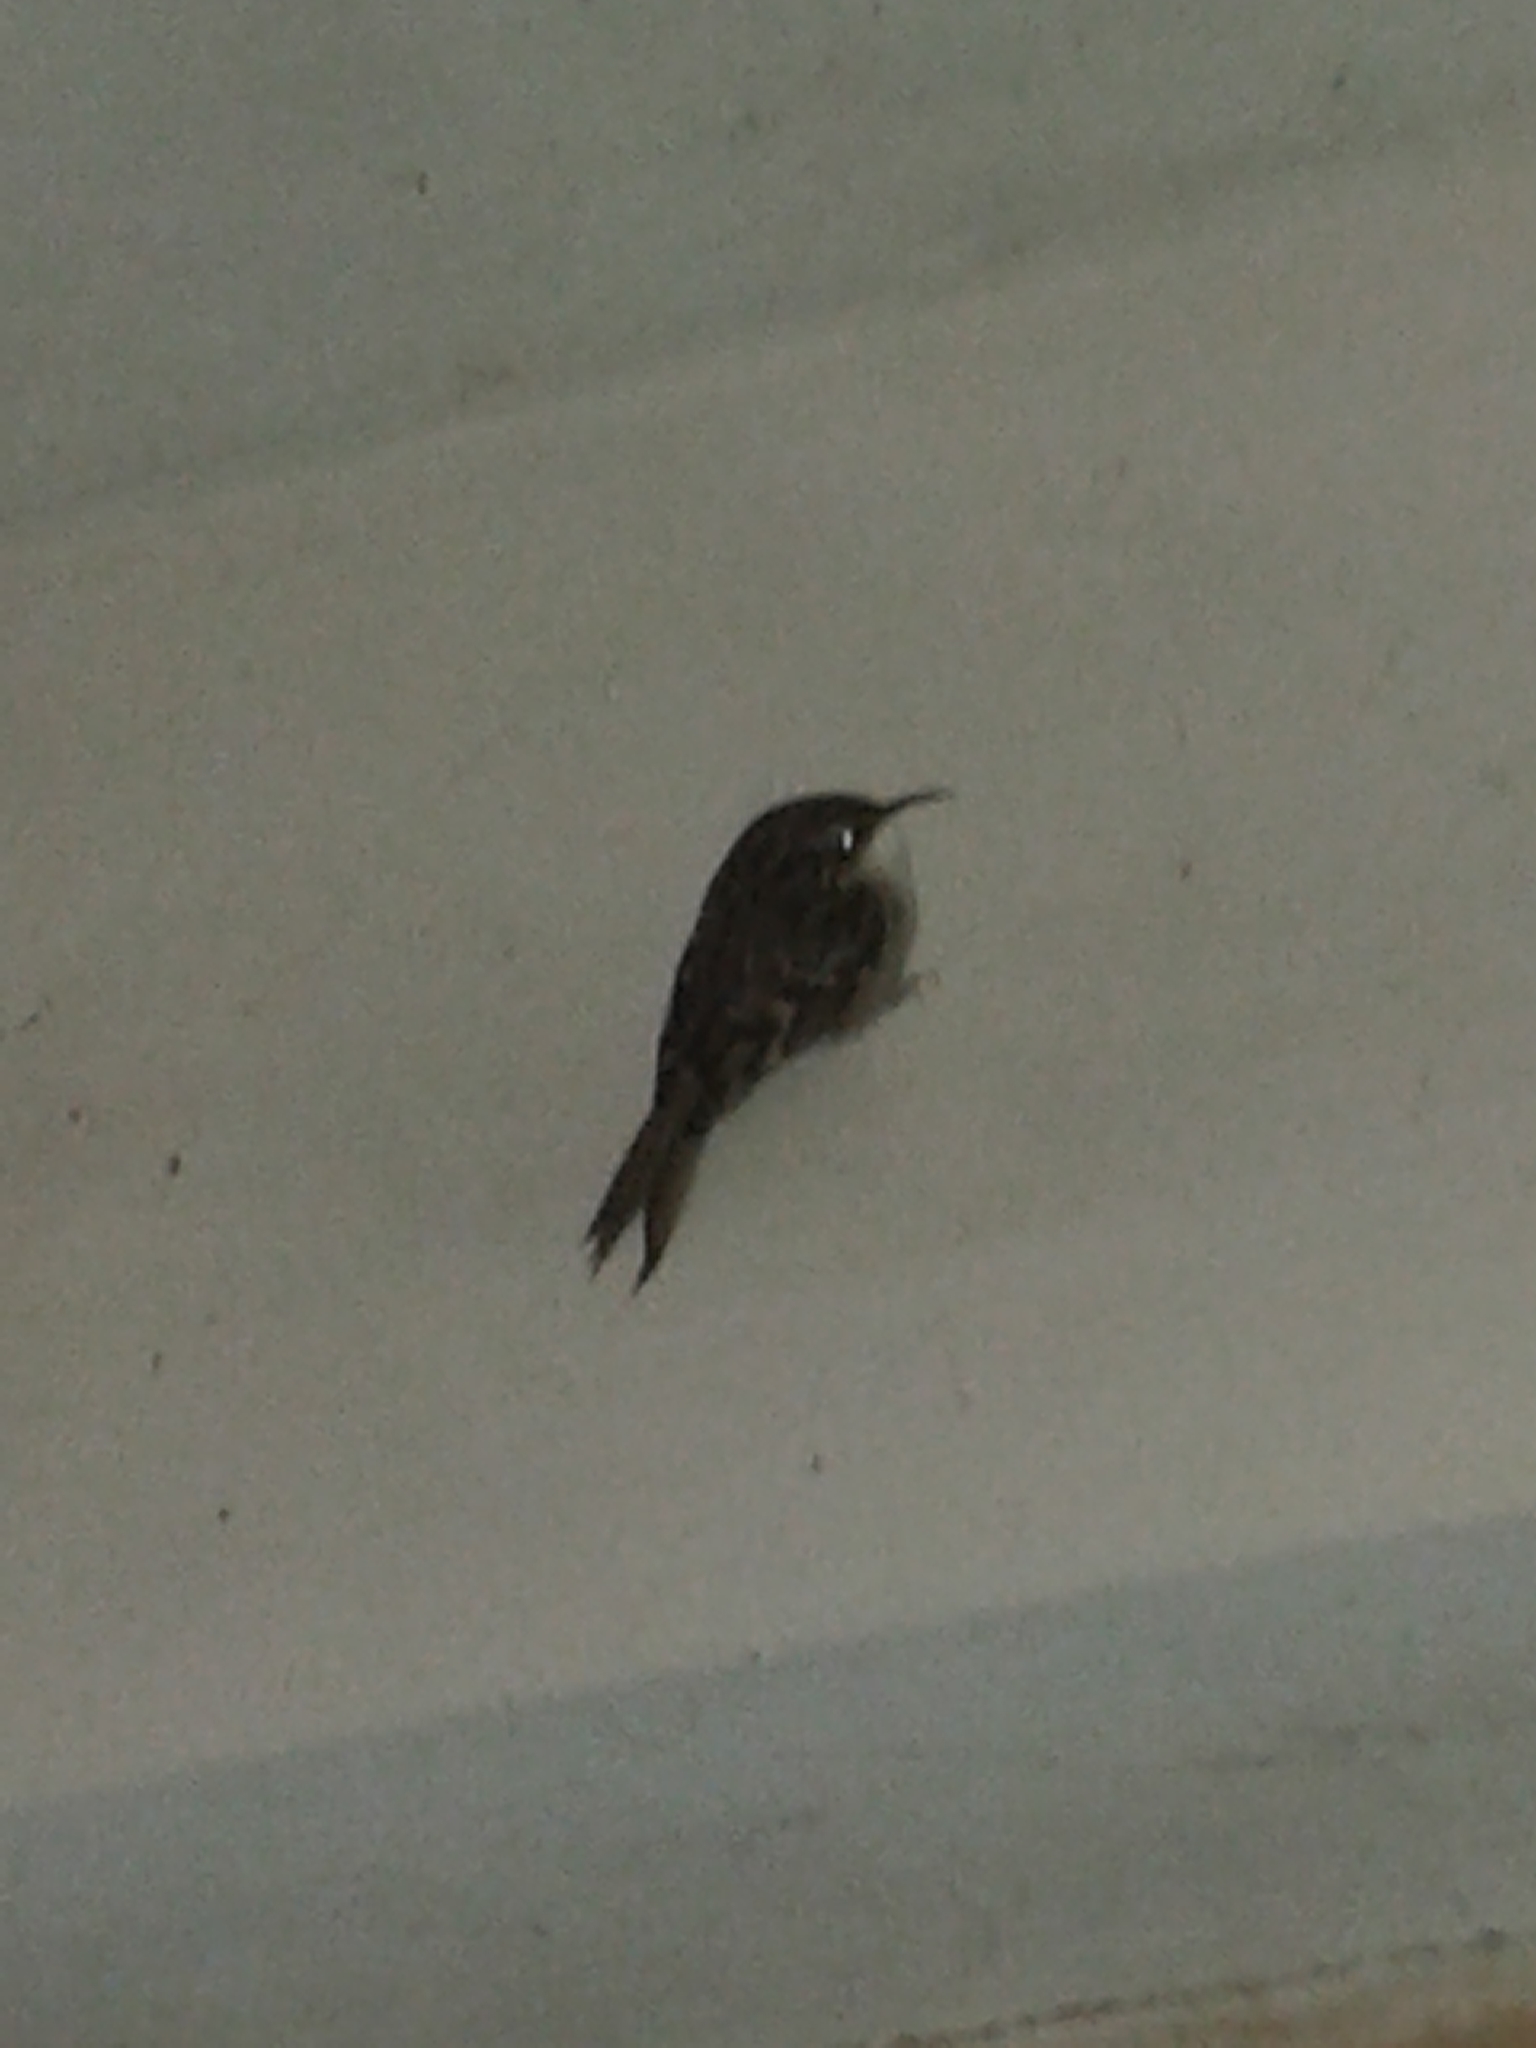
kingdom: Animalia
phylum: Chordata
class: Aves
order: Passeriformes
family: Certhiidae
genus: Certhia
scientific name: Certhia brachydactyla
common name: Short-toed treecreeper
